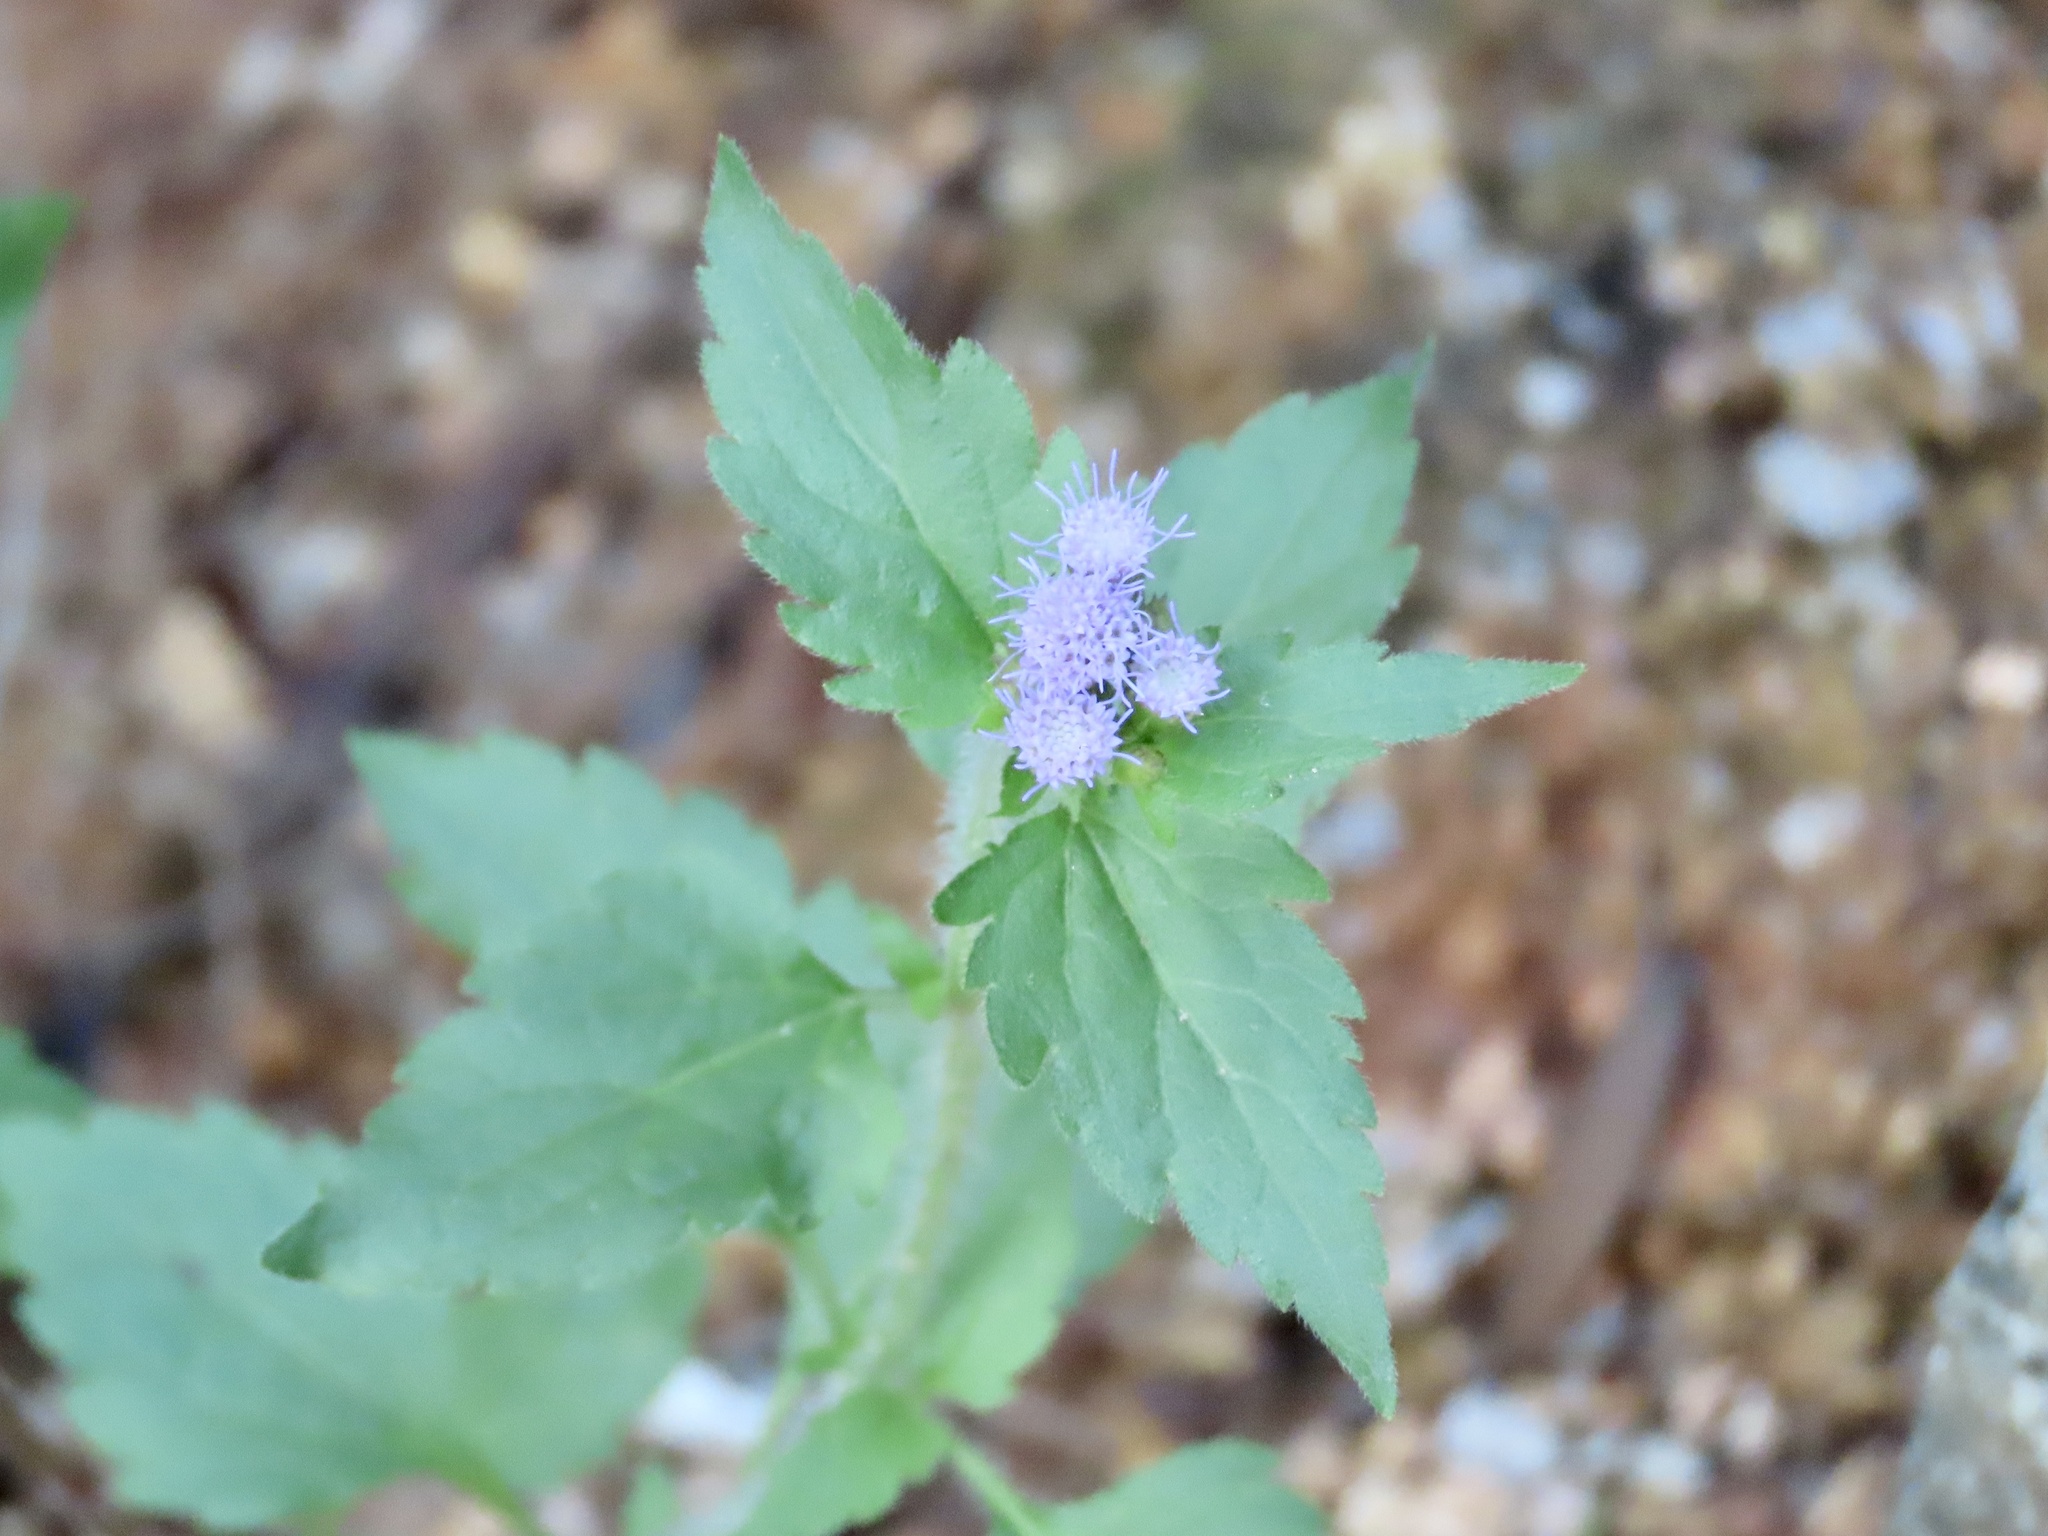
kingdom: Plantae
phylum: Tracheophyta
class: Magnoliopsida
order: Asterales
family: Asteraceae
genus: Praxelis
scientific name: Praxelis clematidea
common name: Praxelis
